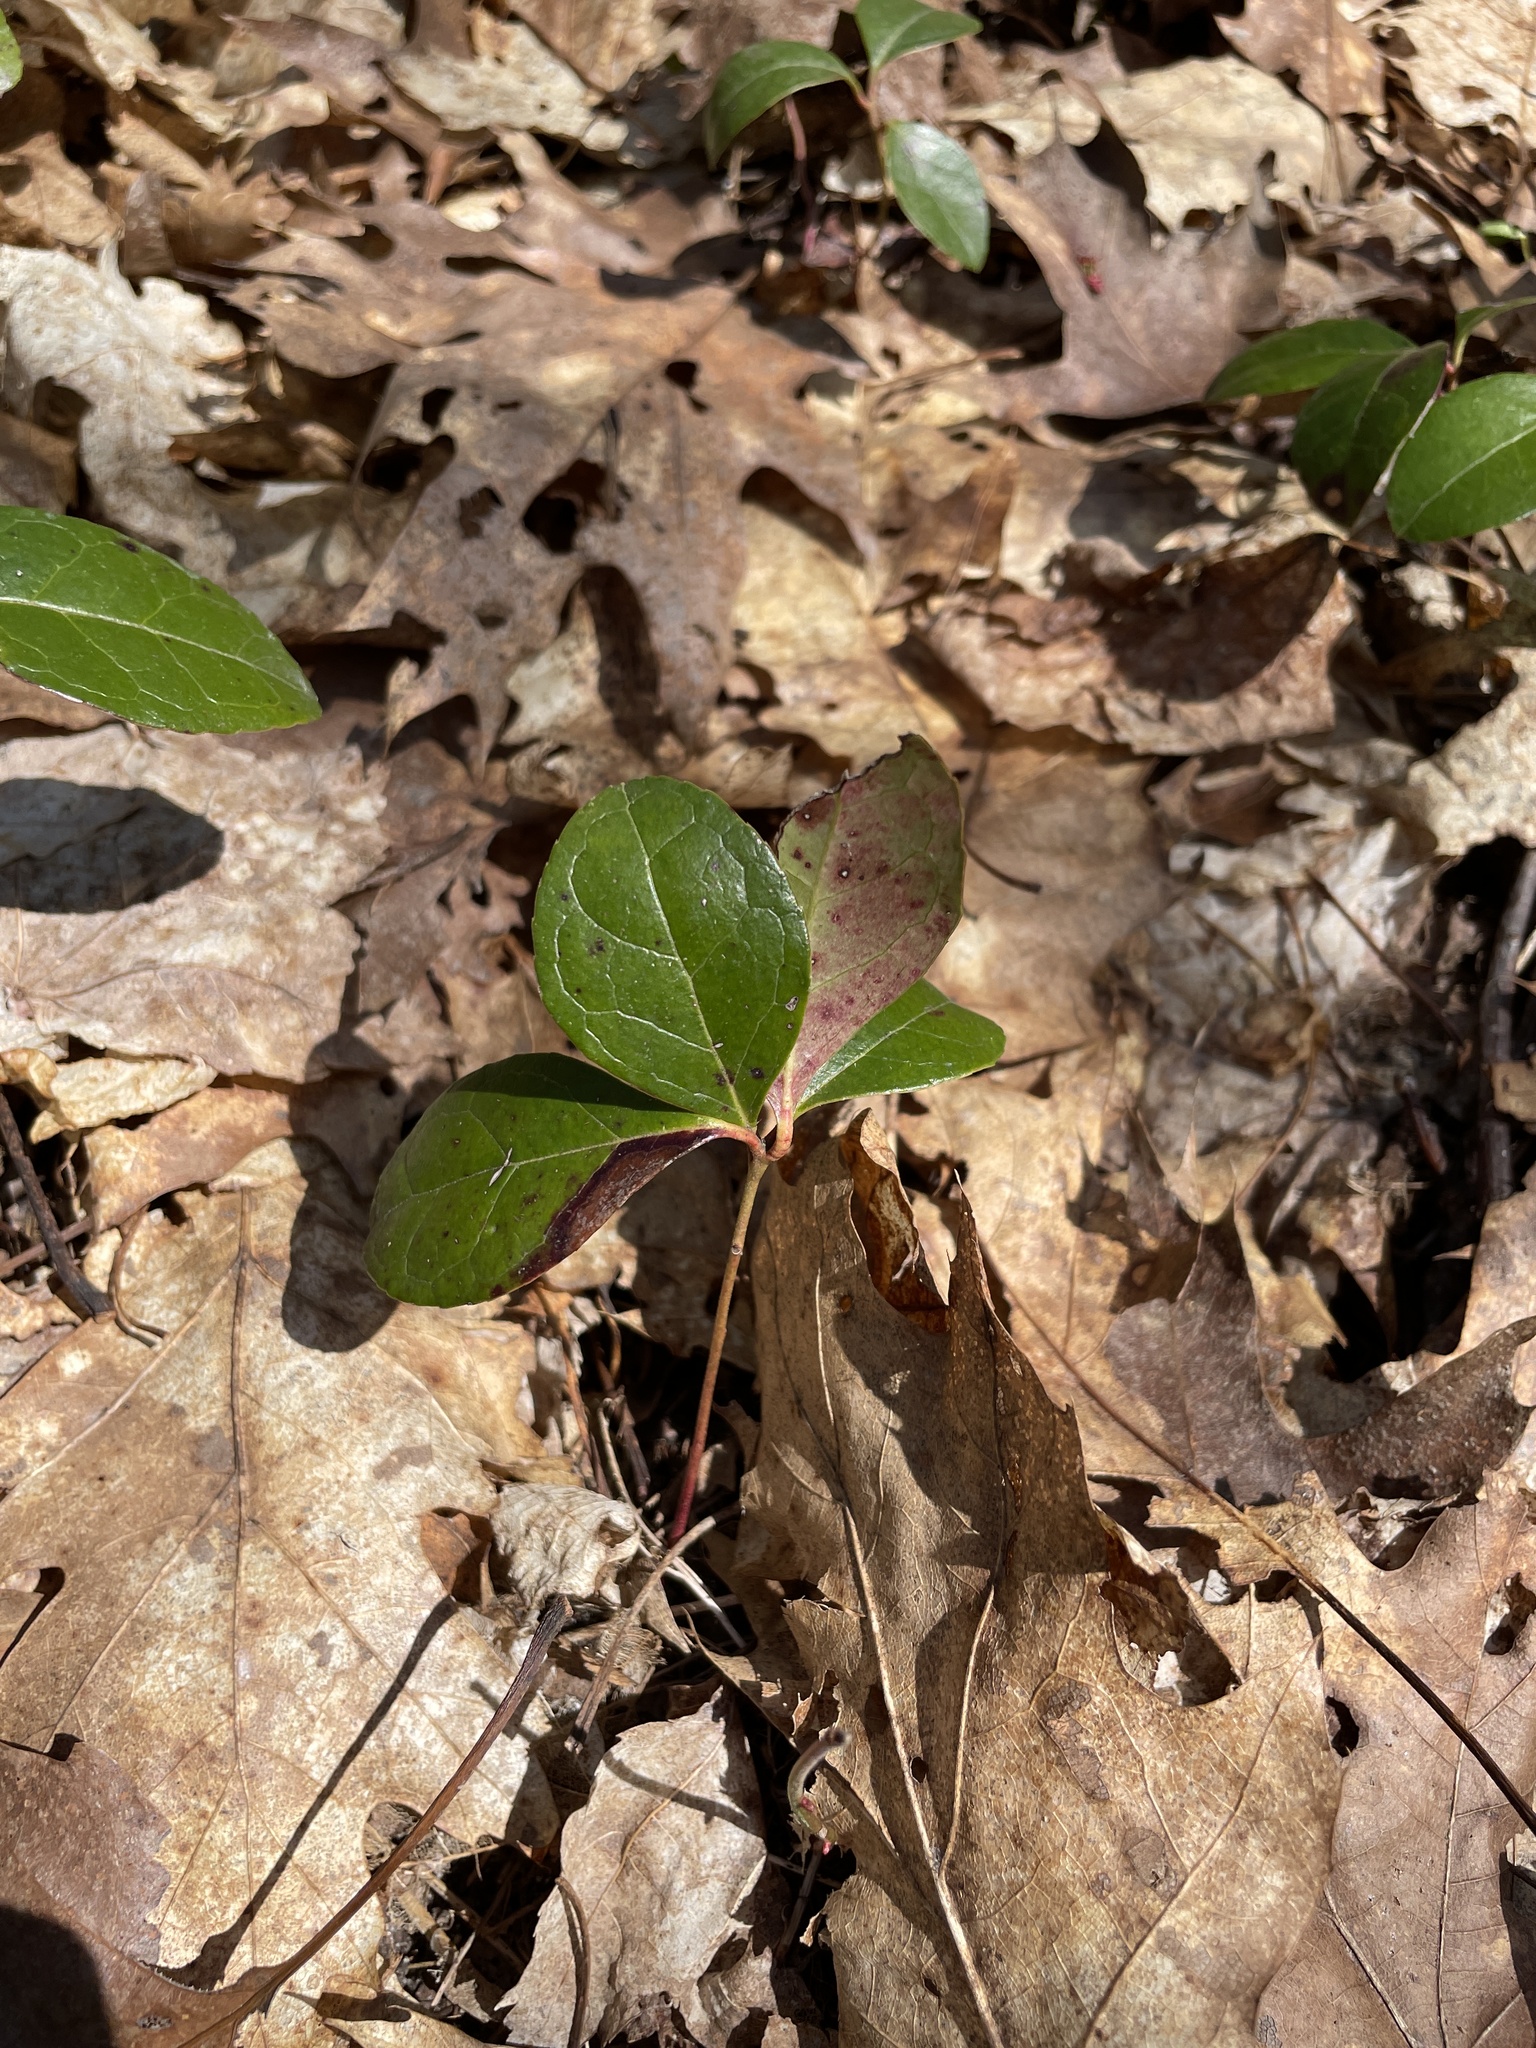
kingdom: Plantae
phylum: Tracheophyta
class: Magnoliopsida
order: Ericales
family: Ericaceae
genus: Gaultheria
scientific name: Gaultheria procumbens
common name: Checkerberry
